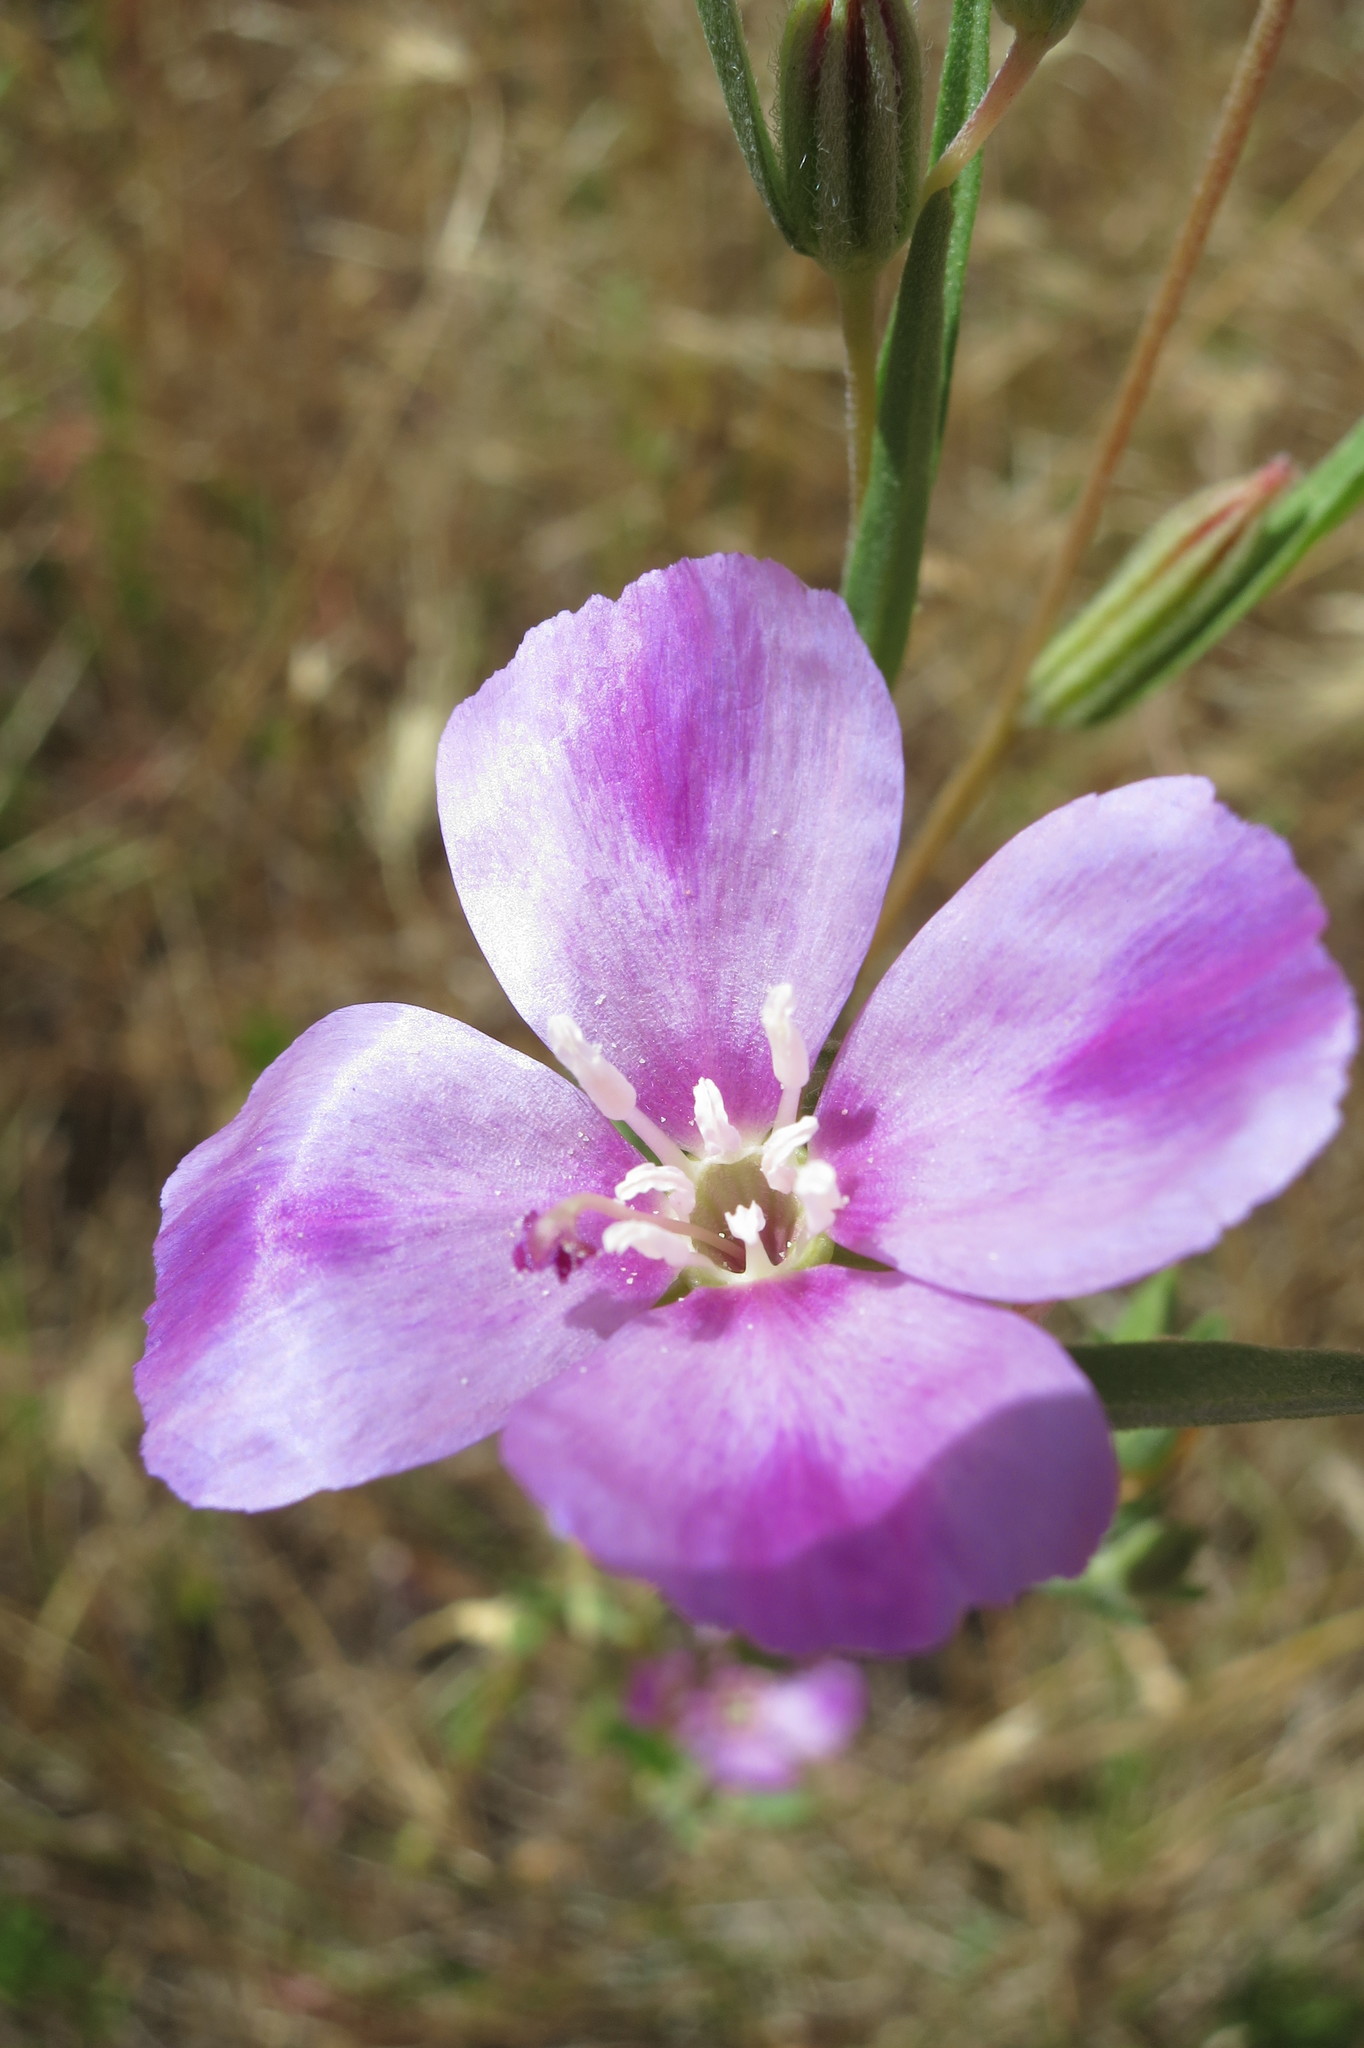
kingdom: Plantae
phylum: Tracheophyta
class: Magnoliopsida
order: Myrtales
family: Onagraceae
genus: Clarkia
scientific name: Clarkia purpurea
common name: Purple clarkia
